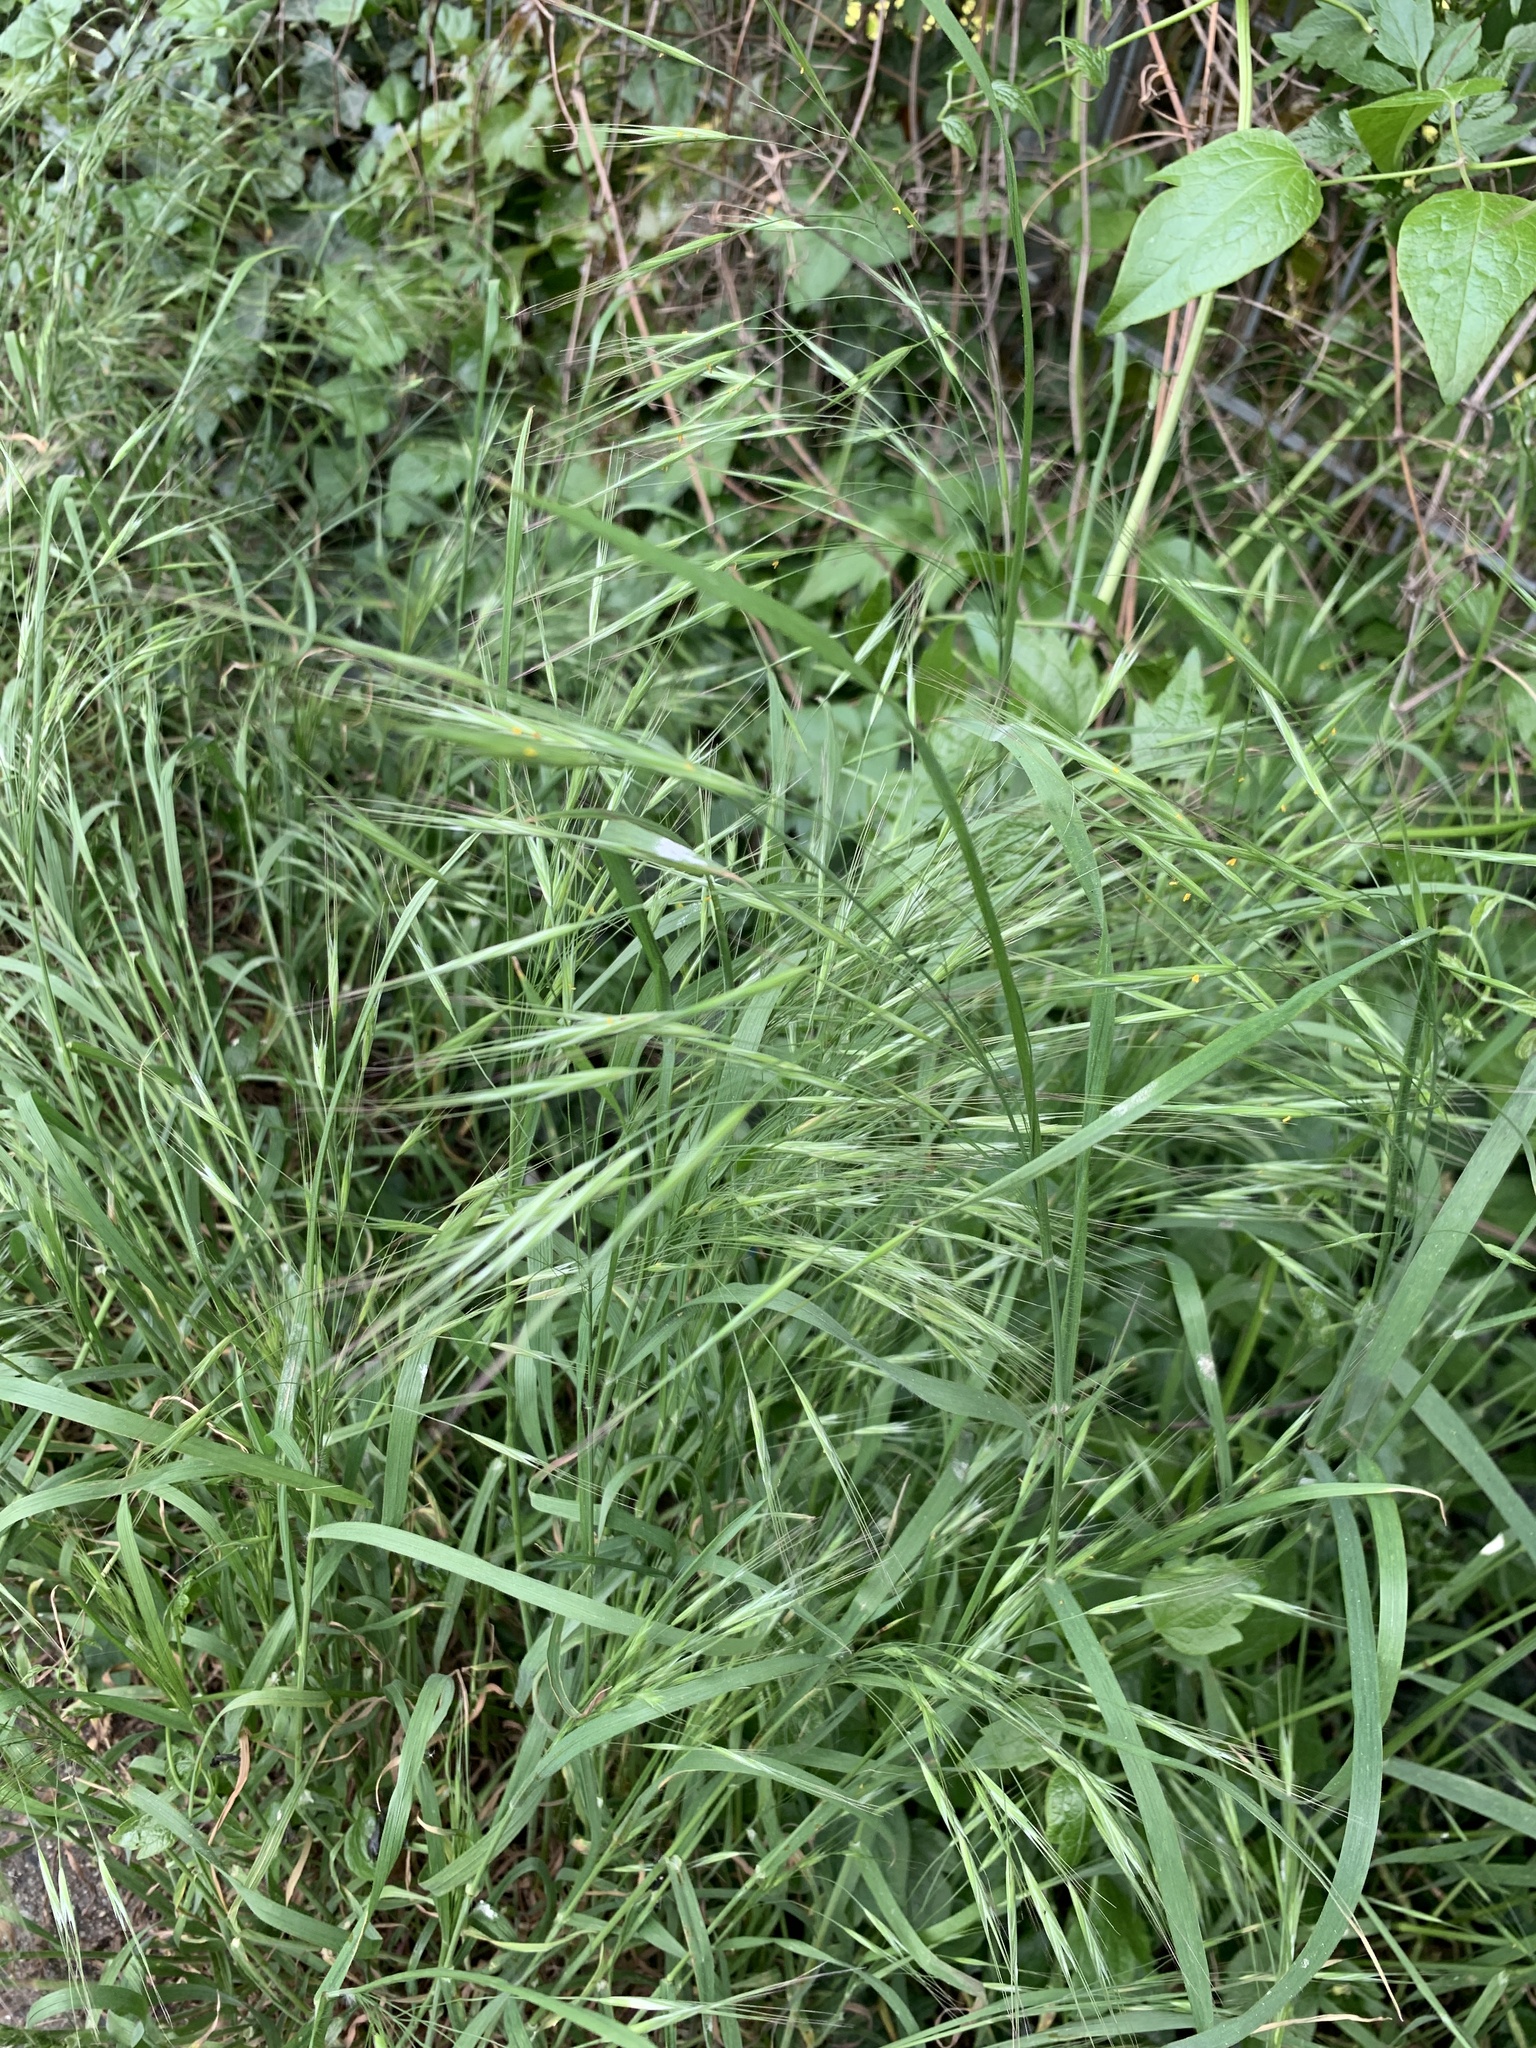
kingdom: Plantae
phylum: Tracheophyta
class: Liliopsida
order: Poales
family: Poaceae
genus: Bromus
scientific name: Bromus sterilis
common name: Poverty brome
